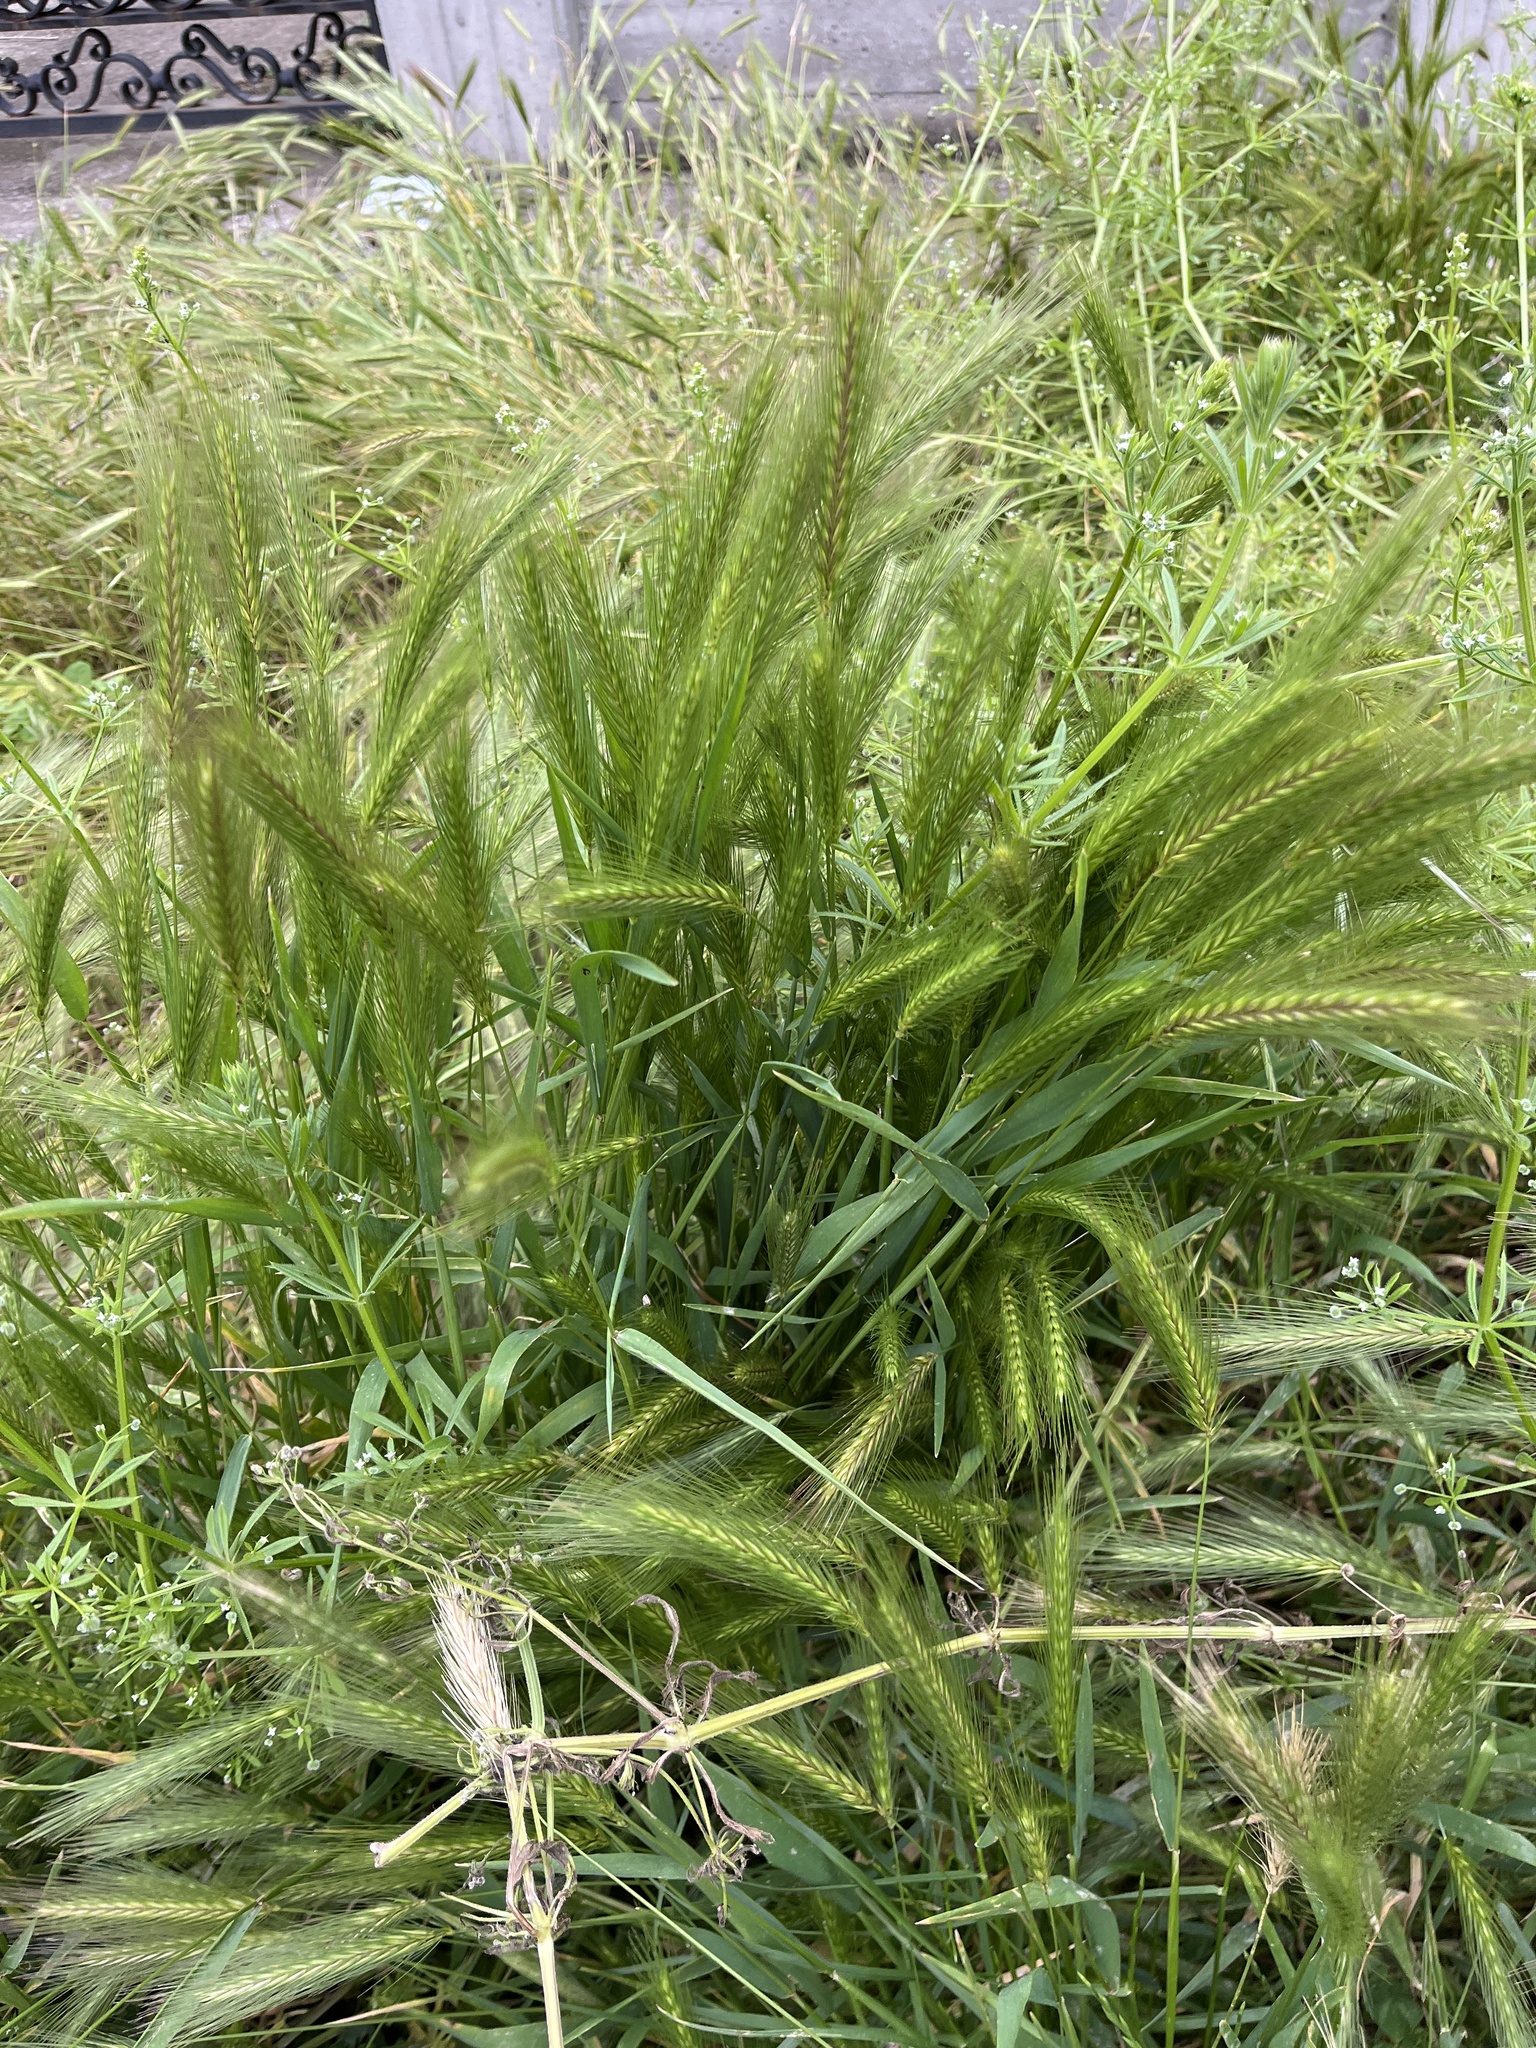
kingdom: Plantae
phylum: Tracheophyta
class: Liliopsida
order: Poales
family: Poaceae
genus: Hordeum
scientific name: Hordeum murinum
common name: Wall barley
